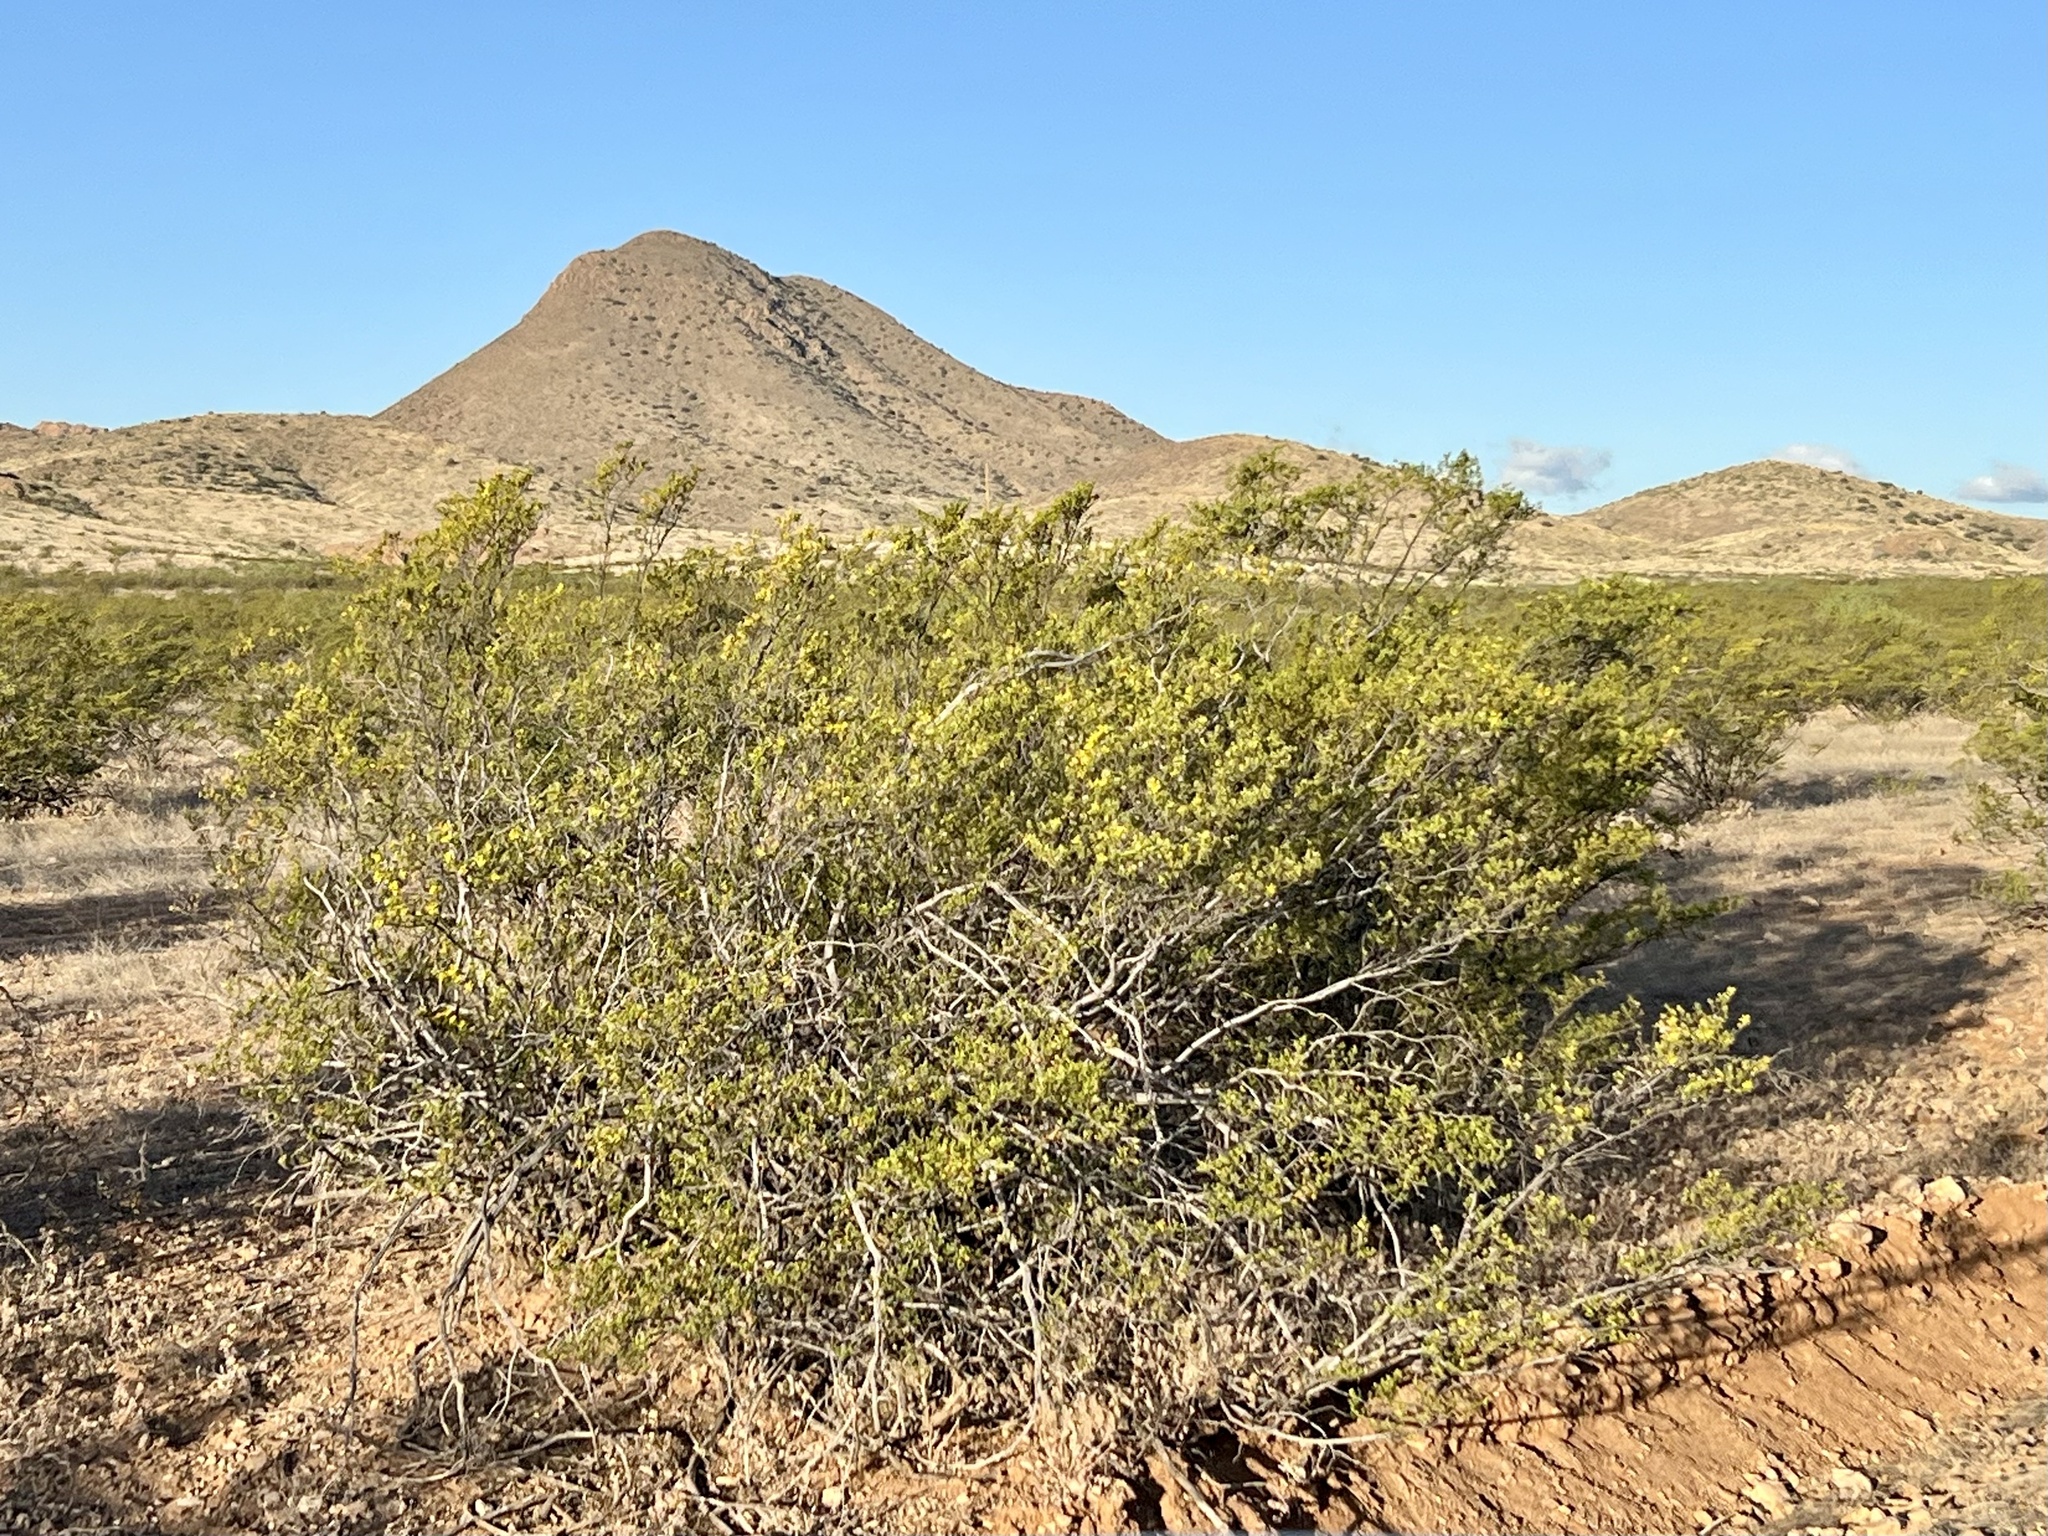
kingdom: Plantae
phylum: Tracheophyta
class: Magnoliopsida
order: Zygophyllales
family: Zygophyllaceae
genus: Larrea
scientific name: Larrea tridentata
